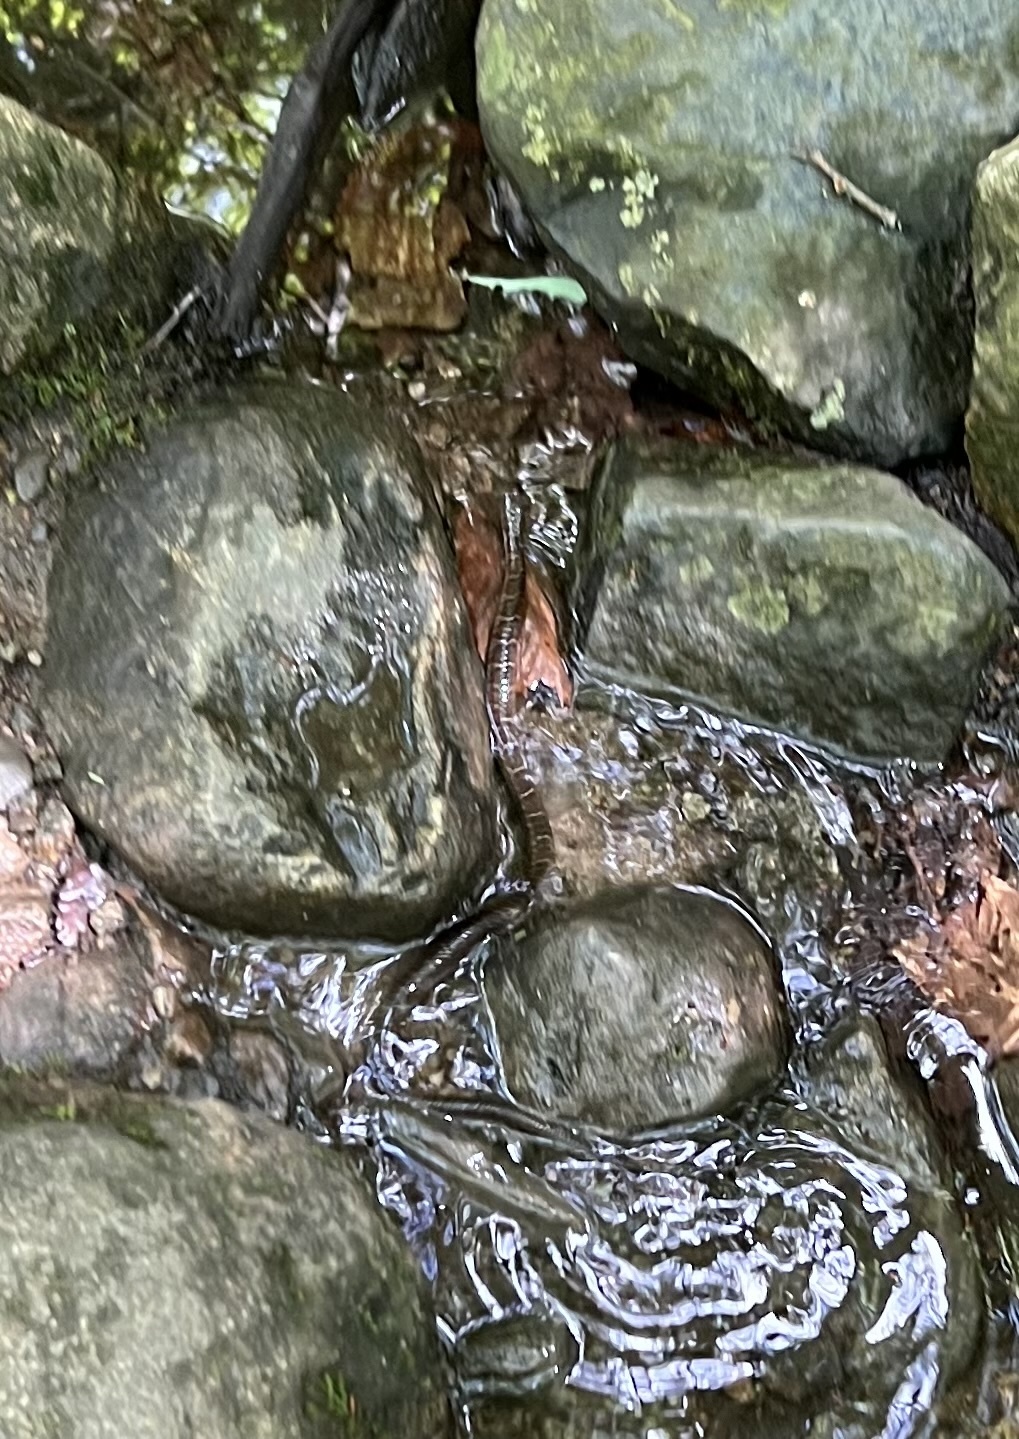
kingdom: Animalia
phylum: Chordata
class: Squamata
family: Colubridae
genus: Nerodia
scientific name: Nerodia sipedon
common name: Northern water snake
